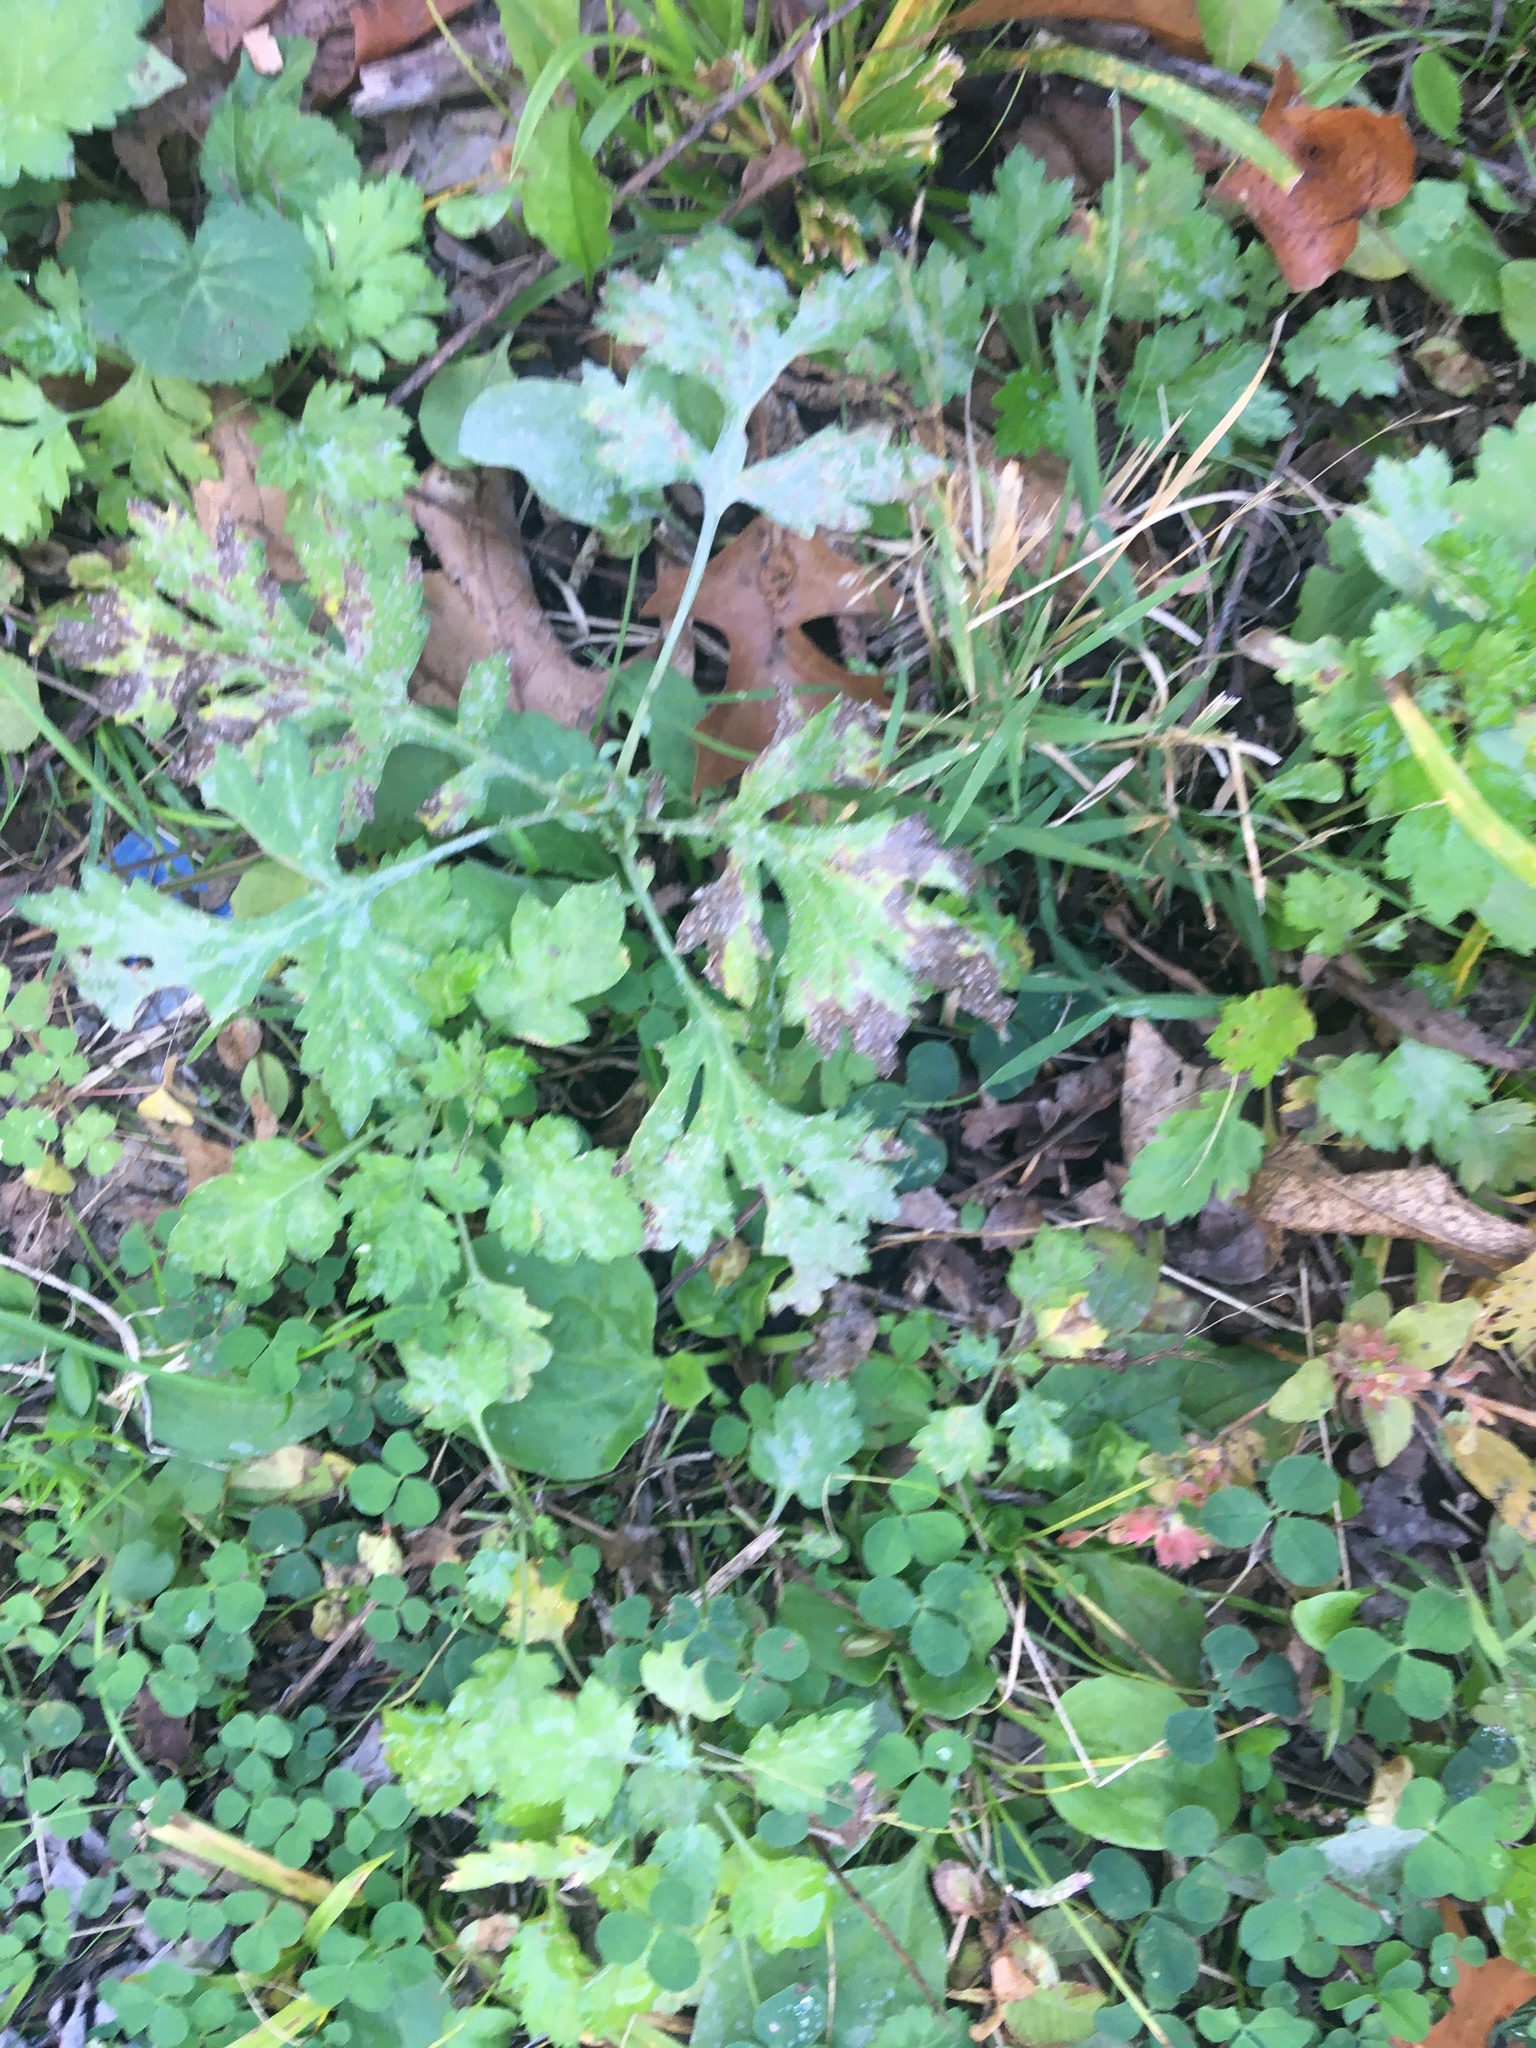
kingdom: Plantae
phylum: Tracheophyta
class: Magnoliopsida
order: Asterales
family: Asteraceae
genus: Artemisia
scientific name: Artemisia vulgaris
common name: Mugwort
